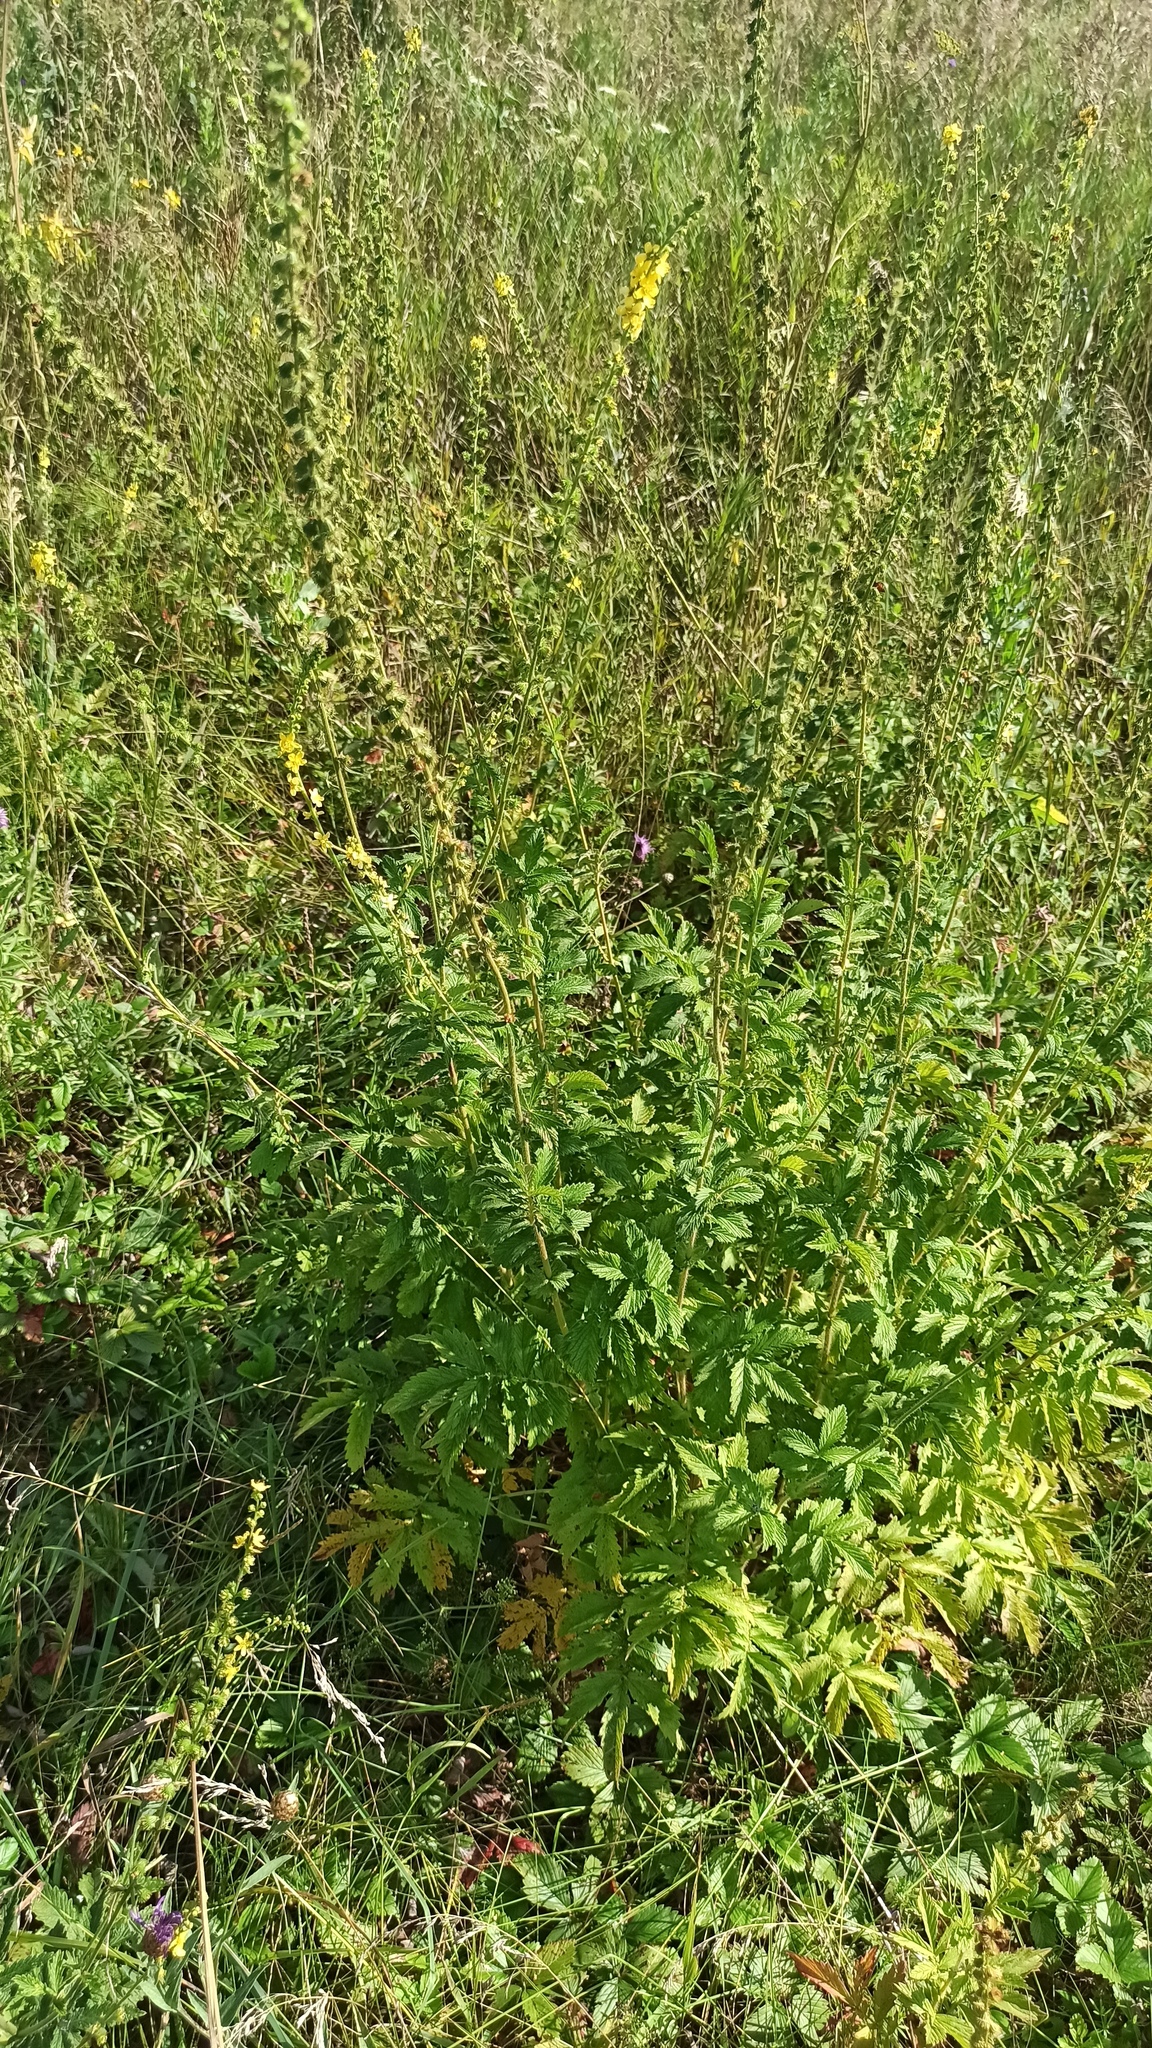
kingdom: Plantae
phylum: Tracheophyta
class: Magnoliopsida
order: Rosales
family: Rosaceae
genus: Agrimonia
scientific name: Agrimonia eupatoria
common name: Agrimony
